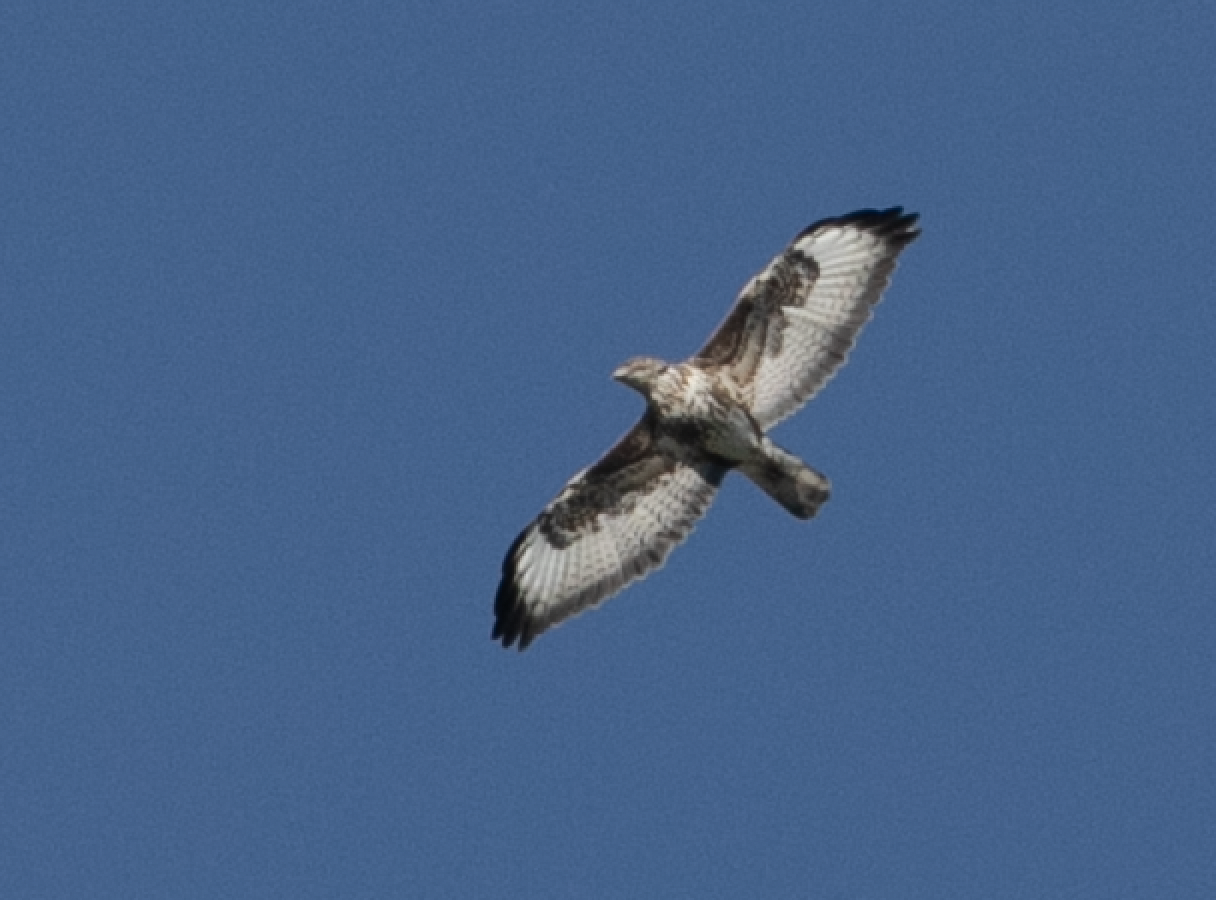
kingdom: Animalia
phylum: Chordata
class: Aves
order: Accipitriformes
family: Accipitridae
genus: Buteo
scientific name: Buteo buteo
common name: Common buzzard
